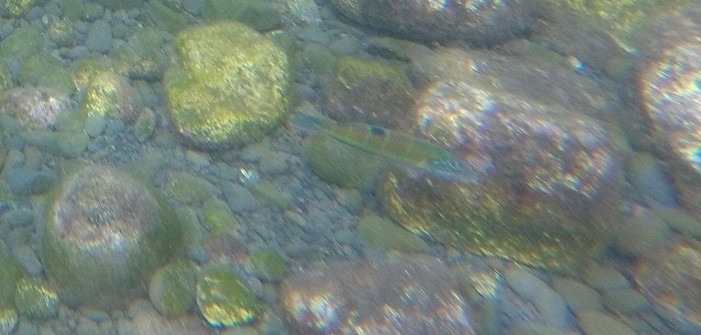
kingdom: Animalia
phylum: Chordata
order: Perciformes
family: Labridae
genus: Thalassoma
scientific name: Thalassoma pavo
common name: Ornate wrasse
